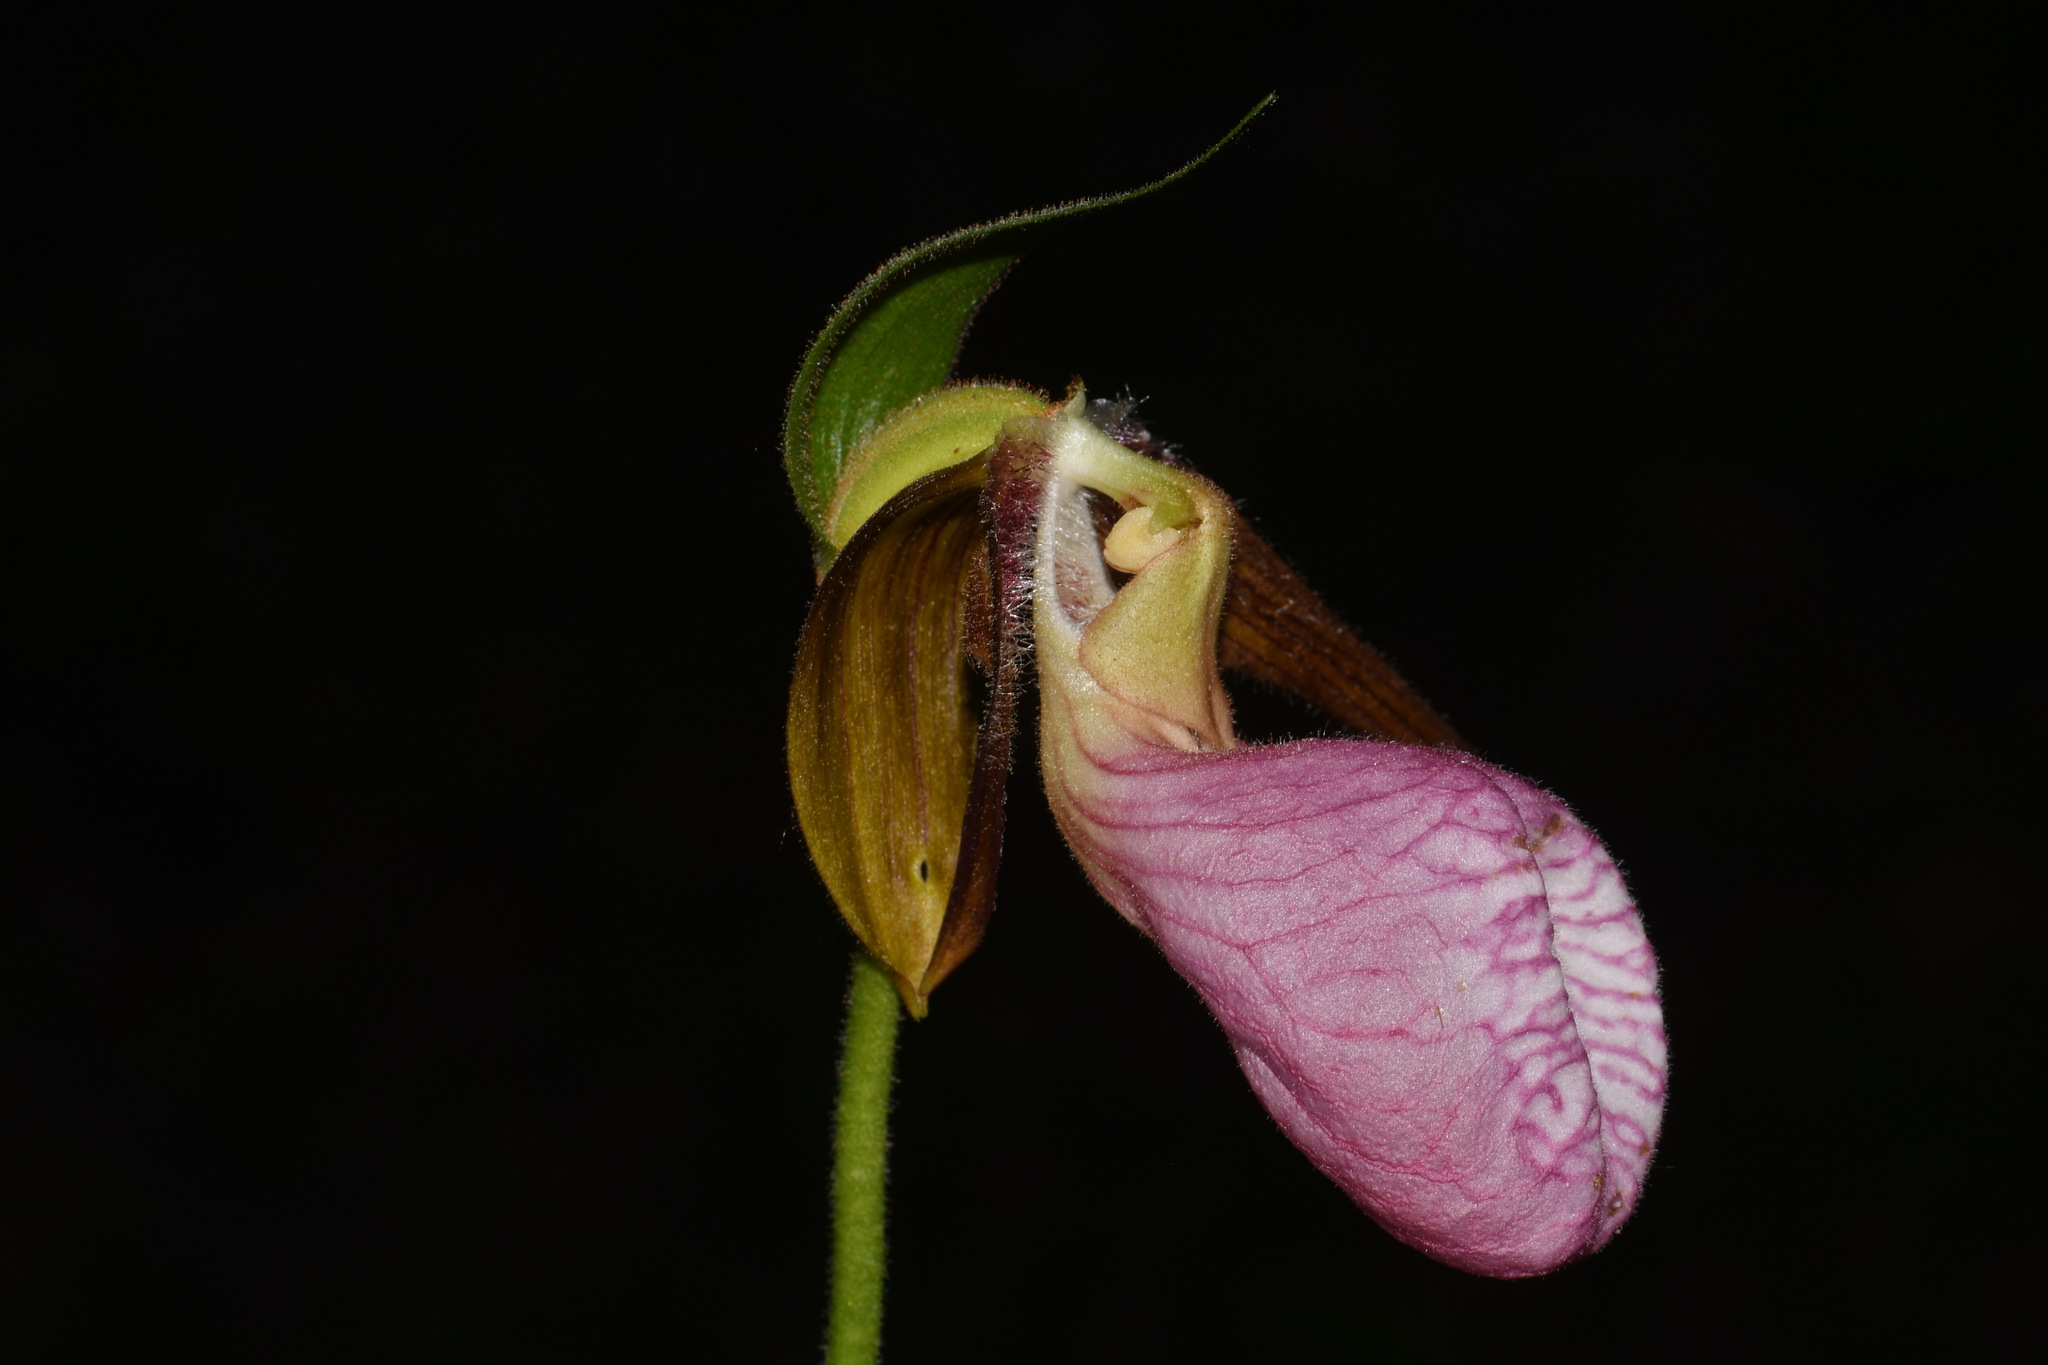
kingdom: Plantae
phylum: Tracheophyta
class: Liliopsida
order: Asparagales
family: Orchidaceae
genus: Cypripedium
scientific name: Cypripedium acaule
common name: Pink lady's-slipper
